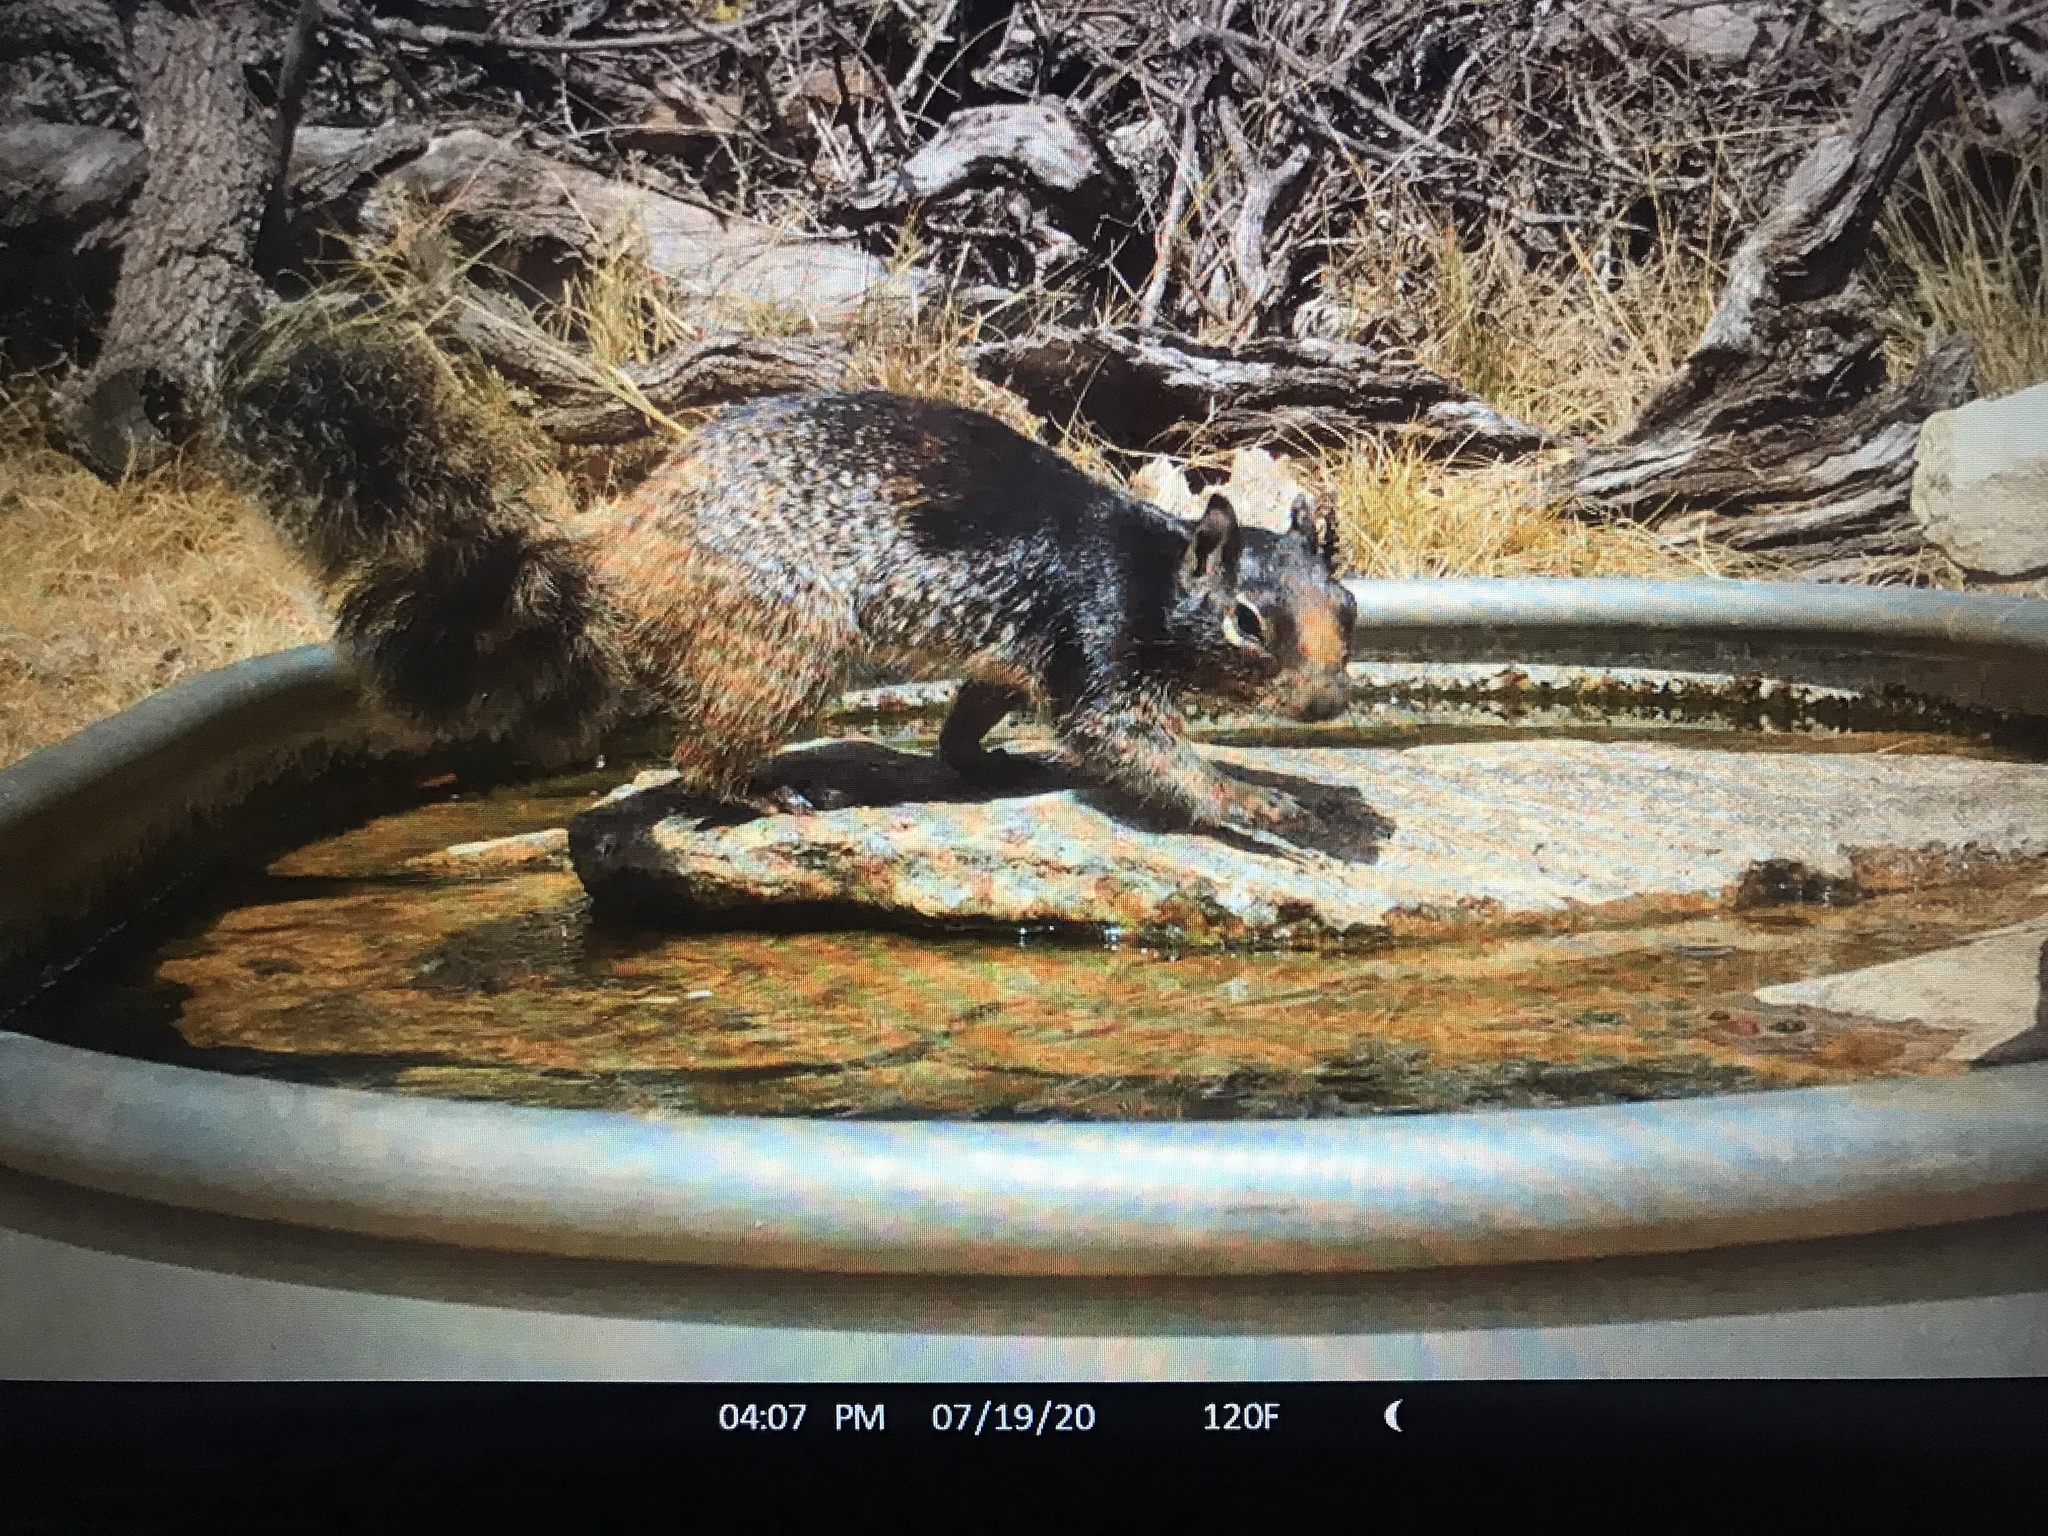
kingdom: Animalia
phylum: Chordata
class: Mammalia
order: Rodentia
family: Sciuridae
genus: Otospermophilus
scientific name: Otospermophilus variegatus
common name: Rock squirrel
